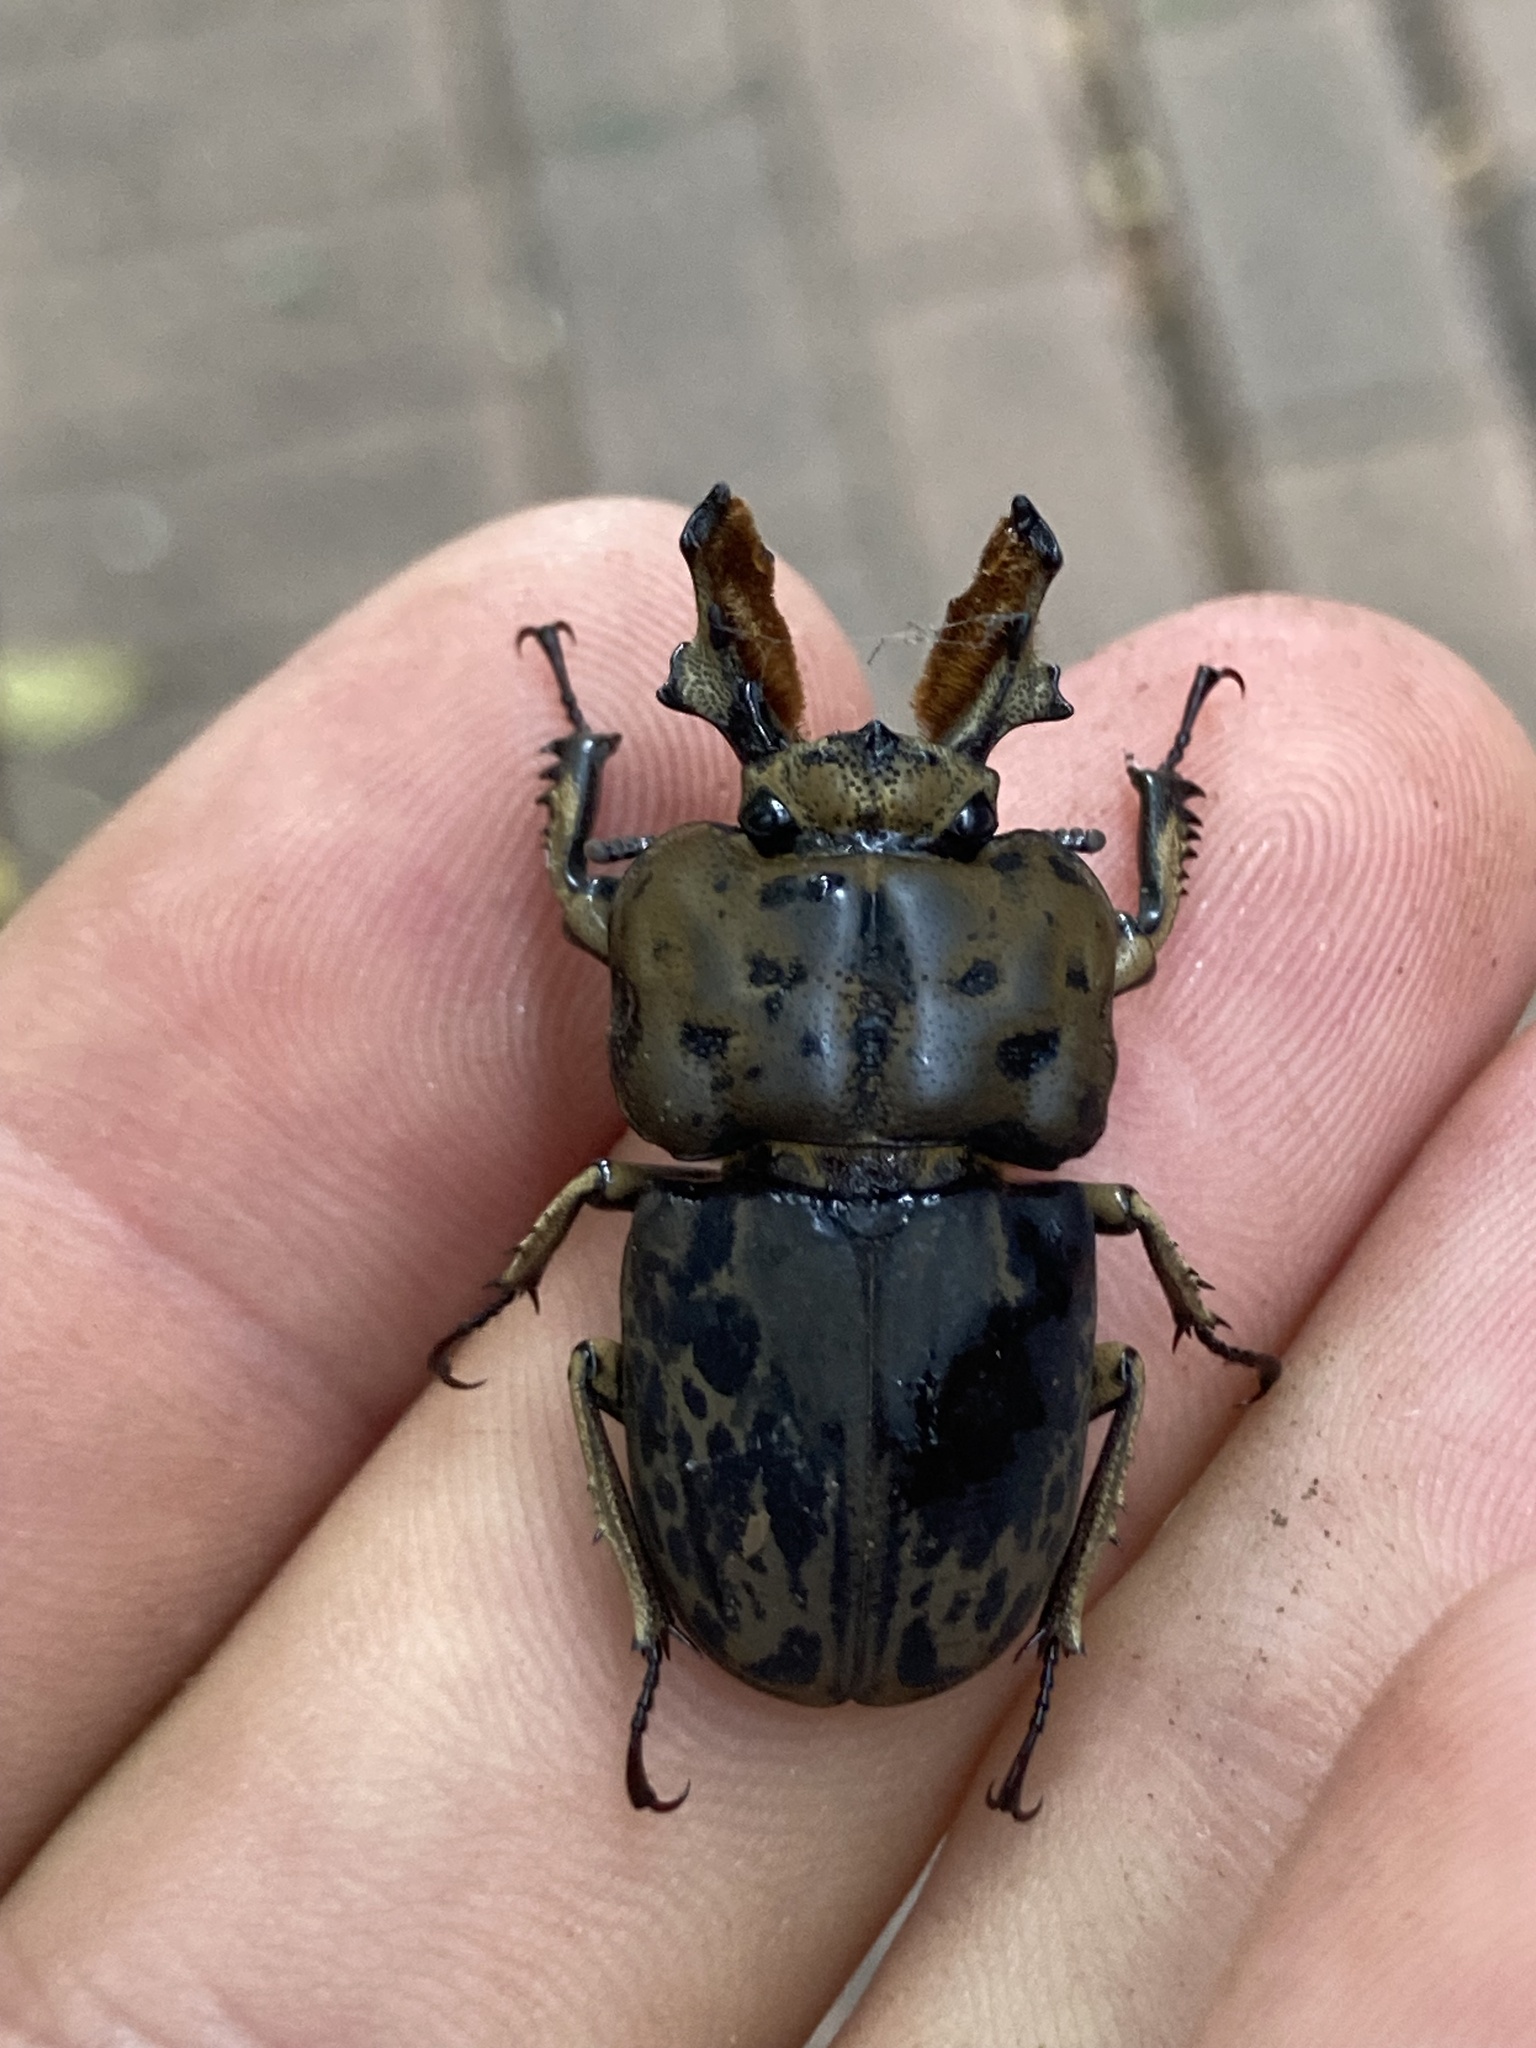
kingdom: Animalia
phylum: Arthropoda
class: Insecta
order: Coleoptera
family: Lucanidae
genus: Ryssonotus
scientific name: Ryssonotus nebulosus
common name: Brown stag beetle
